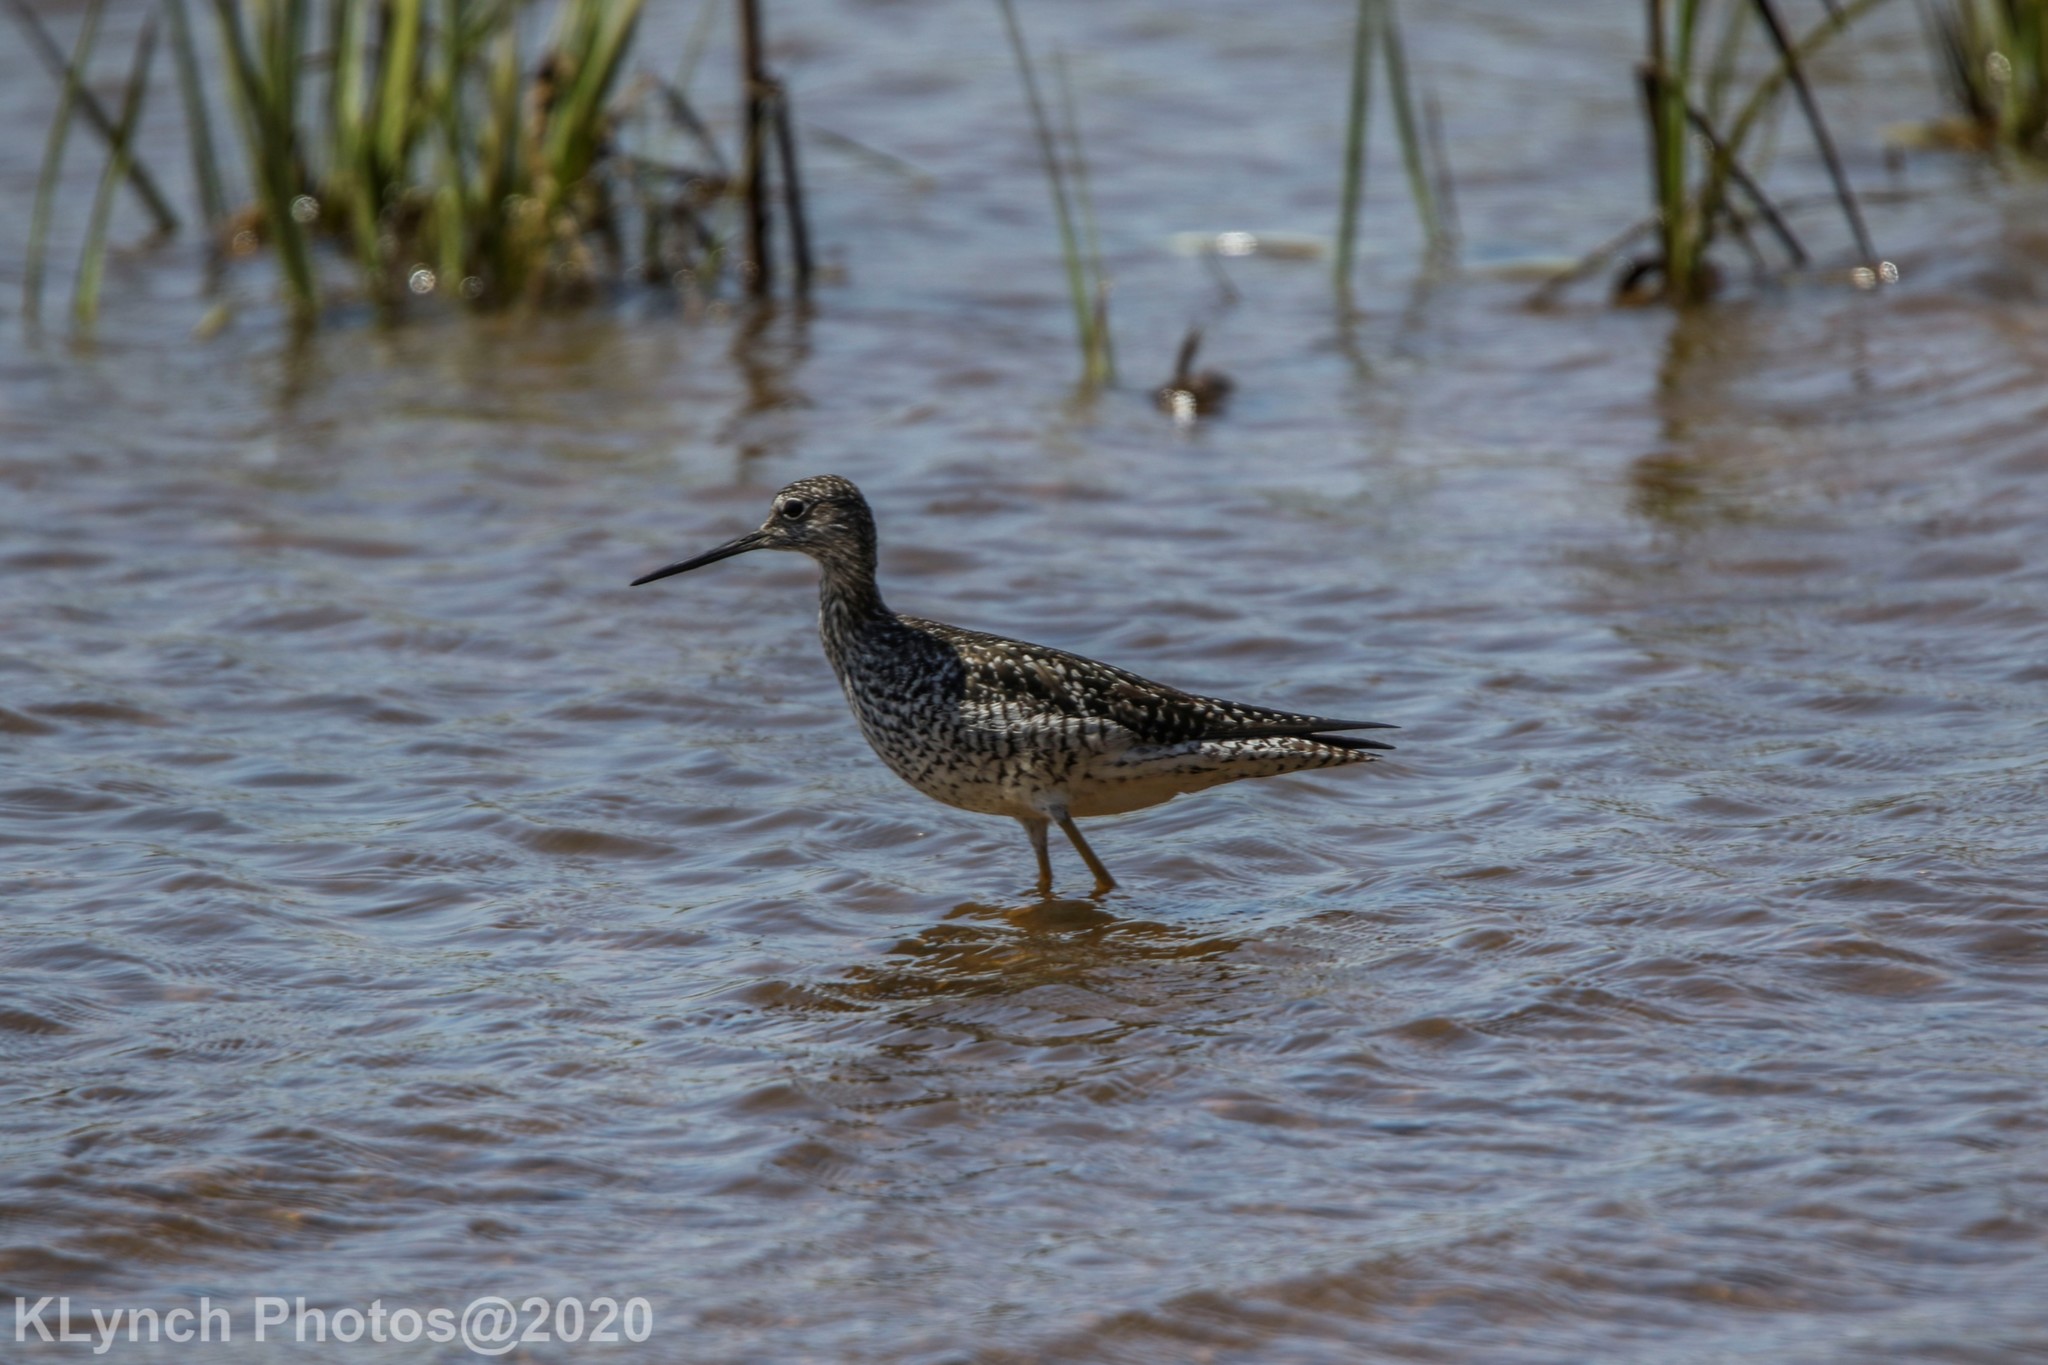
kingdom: Animalia
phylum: Chordata
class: Aves
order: Charadriiformes
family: Scolopacidae
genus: Tringa
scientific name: Tringa semipalmata
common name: Willet
